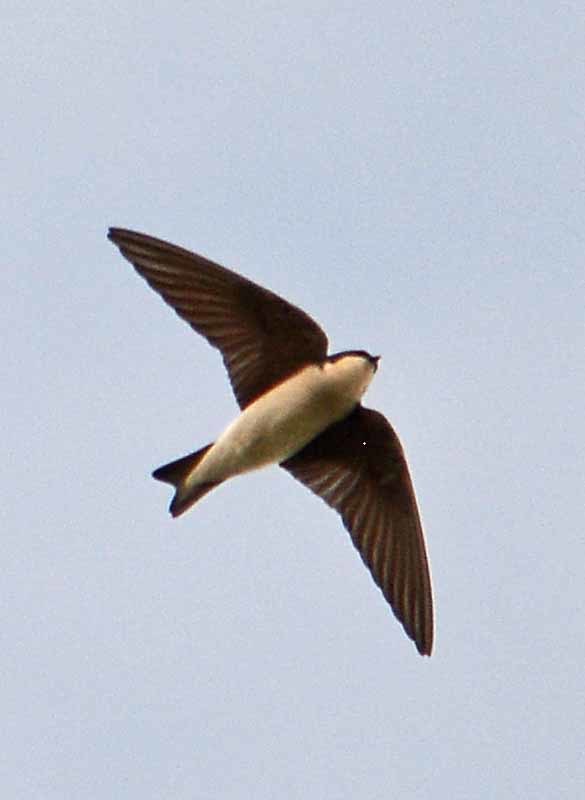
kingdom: Animalia
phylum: Chordata
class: Aves
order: Passeriformes
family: Hirundinidae
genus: Tachycineta
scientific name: Tachycineta albilinea
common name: Mangrove swallow
